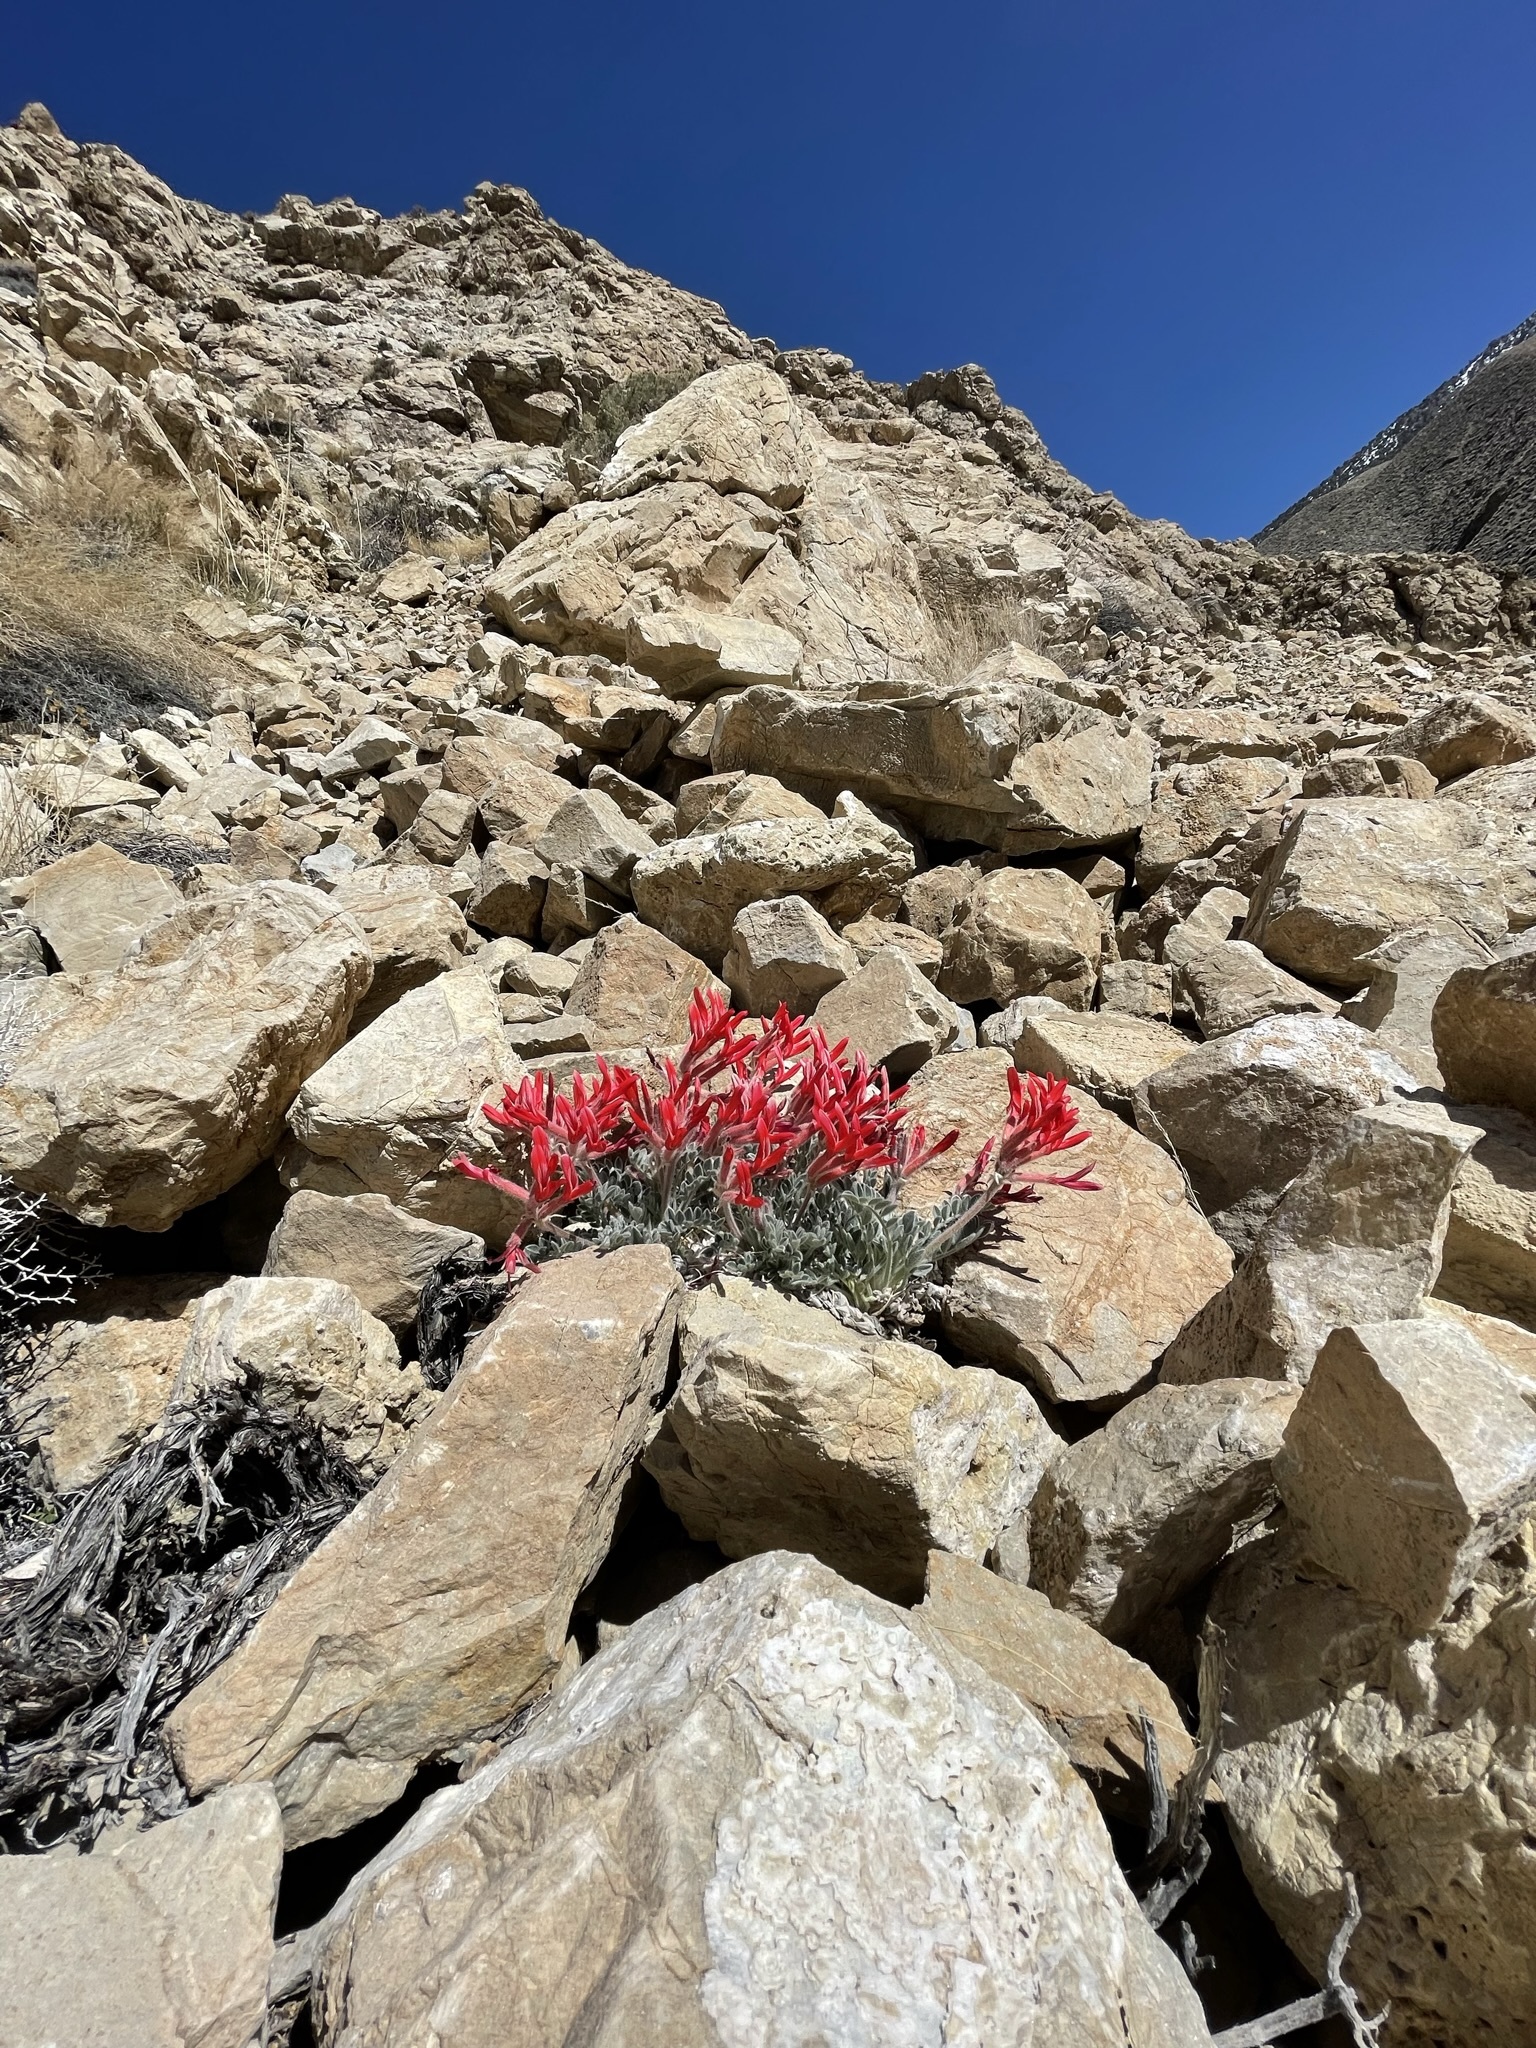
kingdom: Plantae
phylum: Tracheophyta
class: Magnoliopsida
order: Fabales
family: Fabaceae
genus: Astragalus
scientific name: Astragalus coccineus
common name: Scarlet milk-vetch
